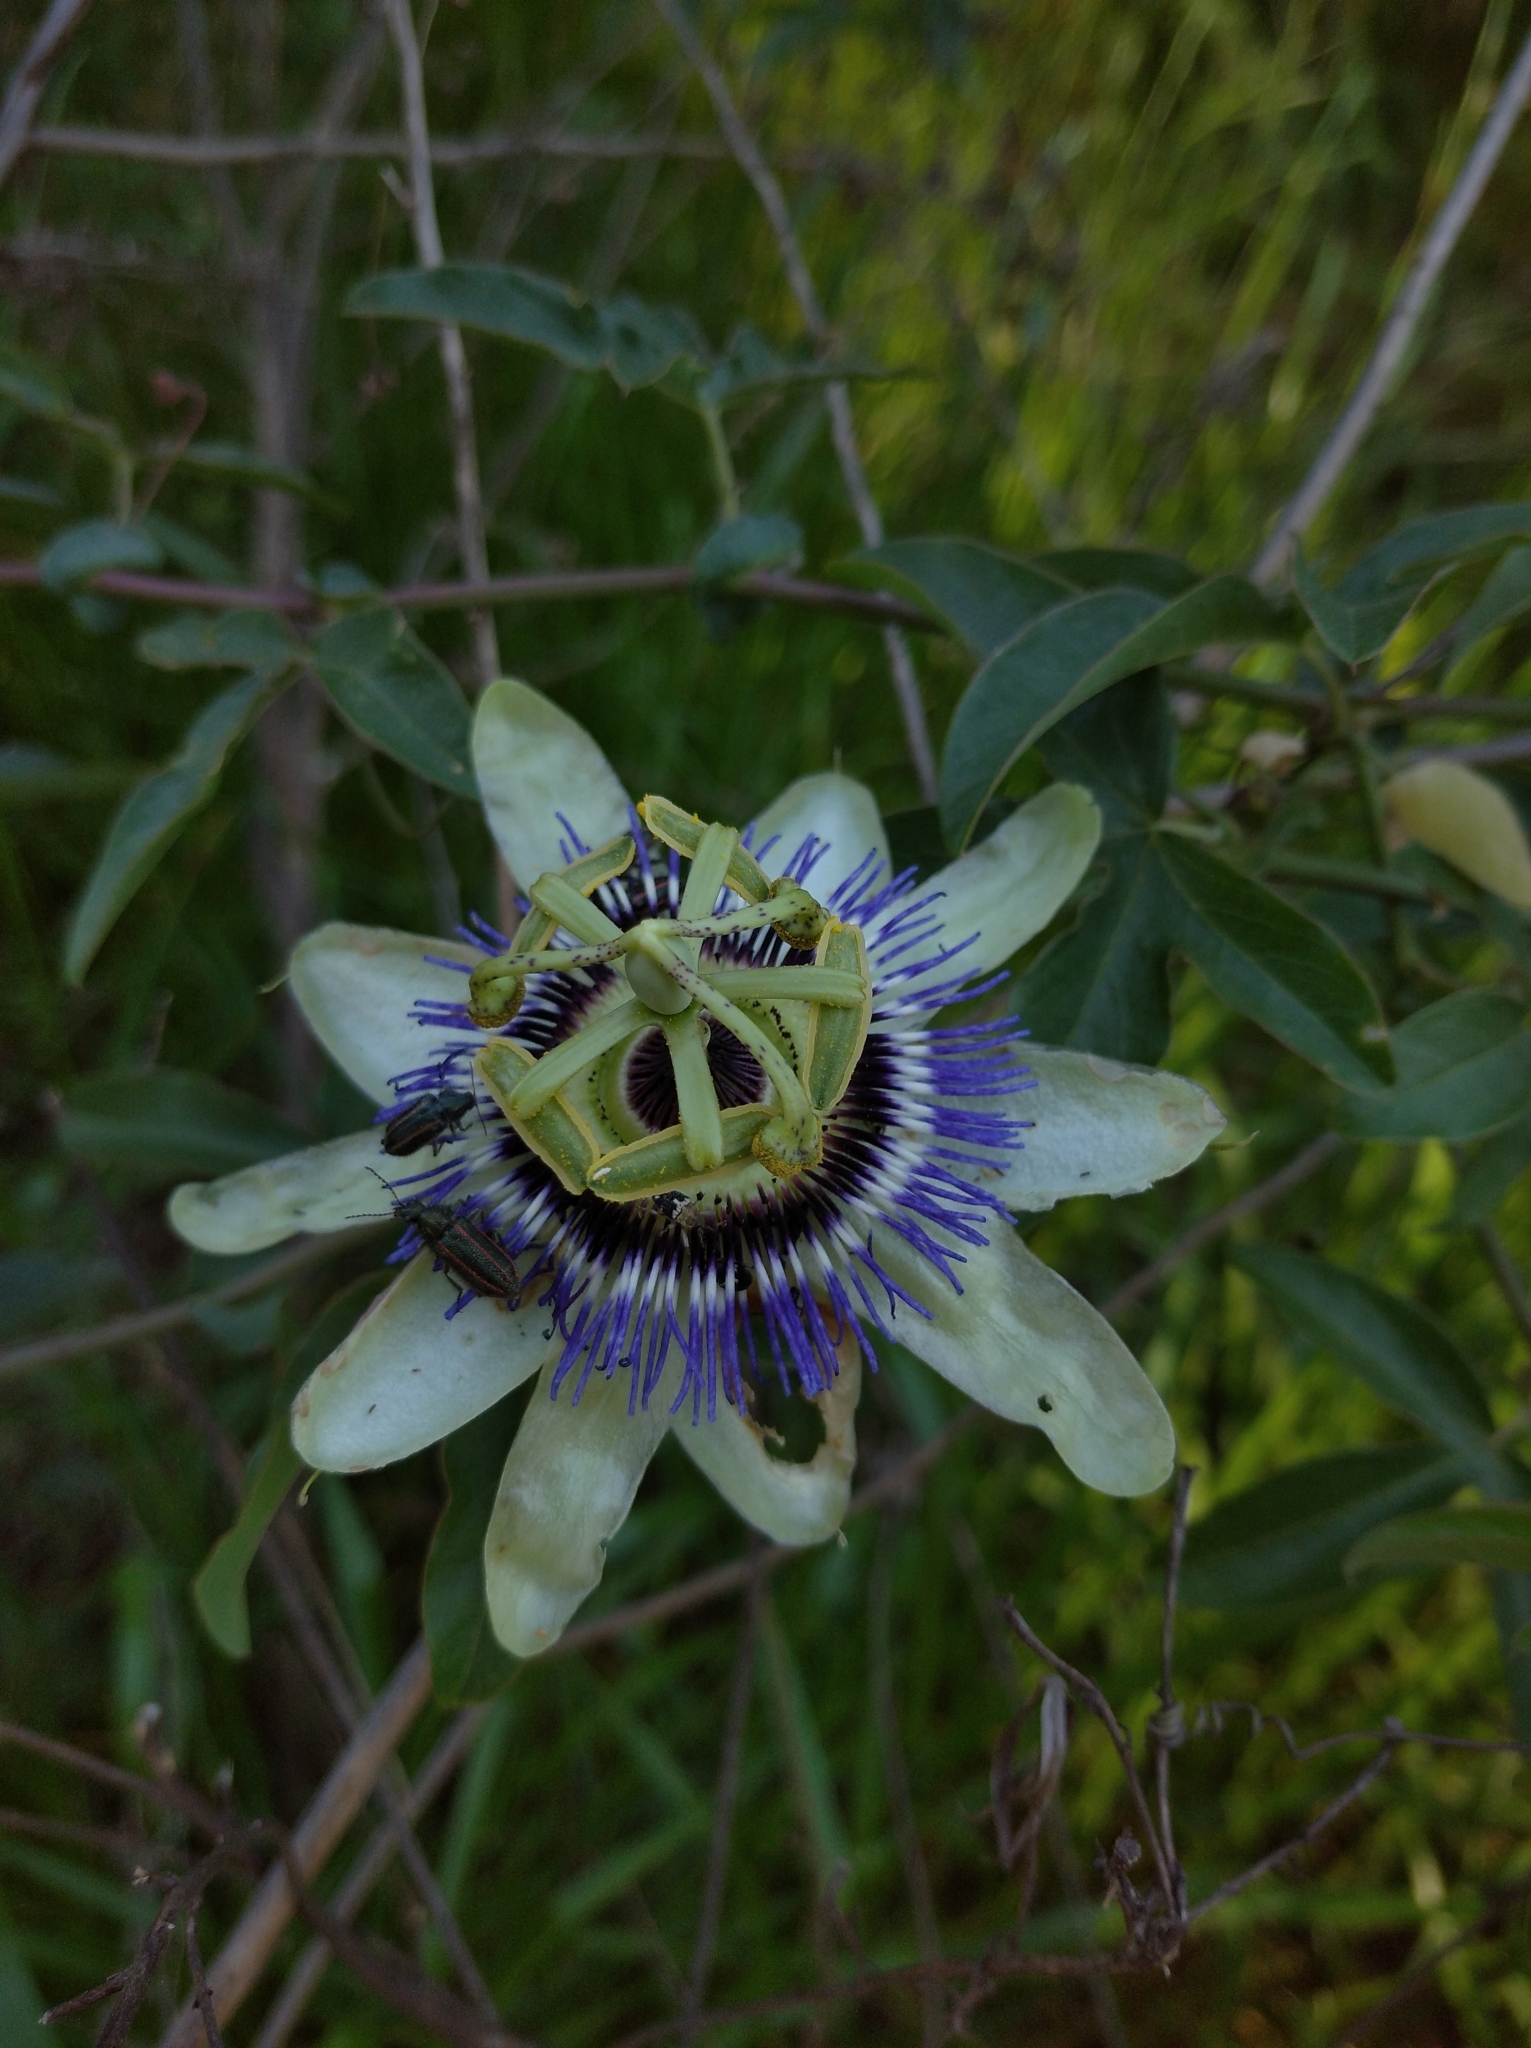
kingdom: Plantae
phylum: Tracheophyta
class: Magnoliopsida
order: Malpighiales
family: Passifloraceae
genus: Passiflora
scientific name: Passiflora caerulea
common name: Blue passionflower
